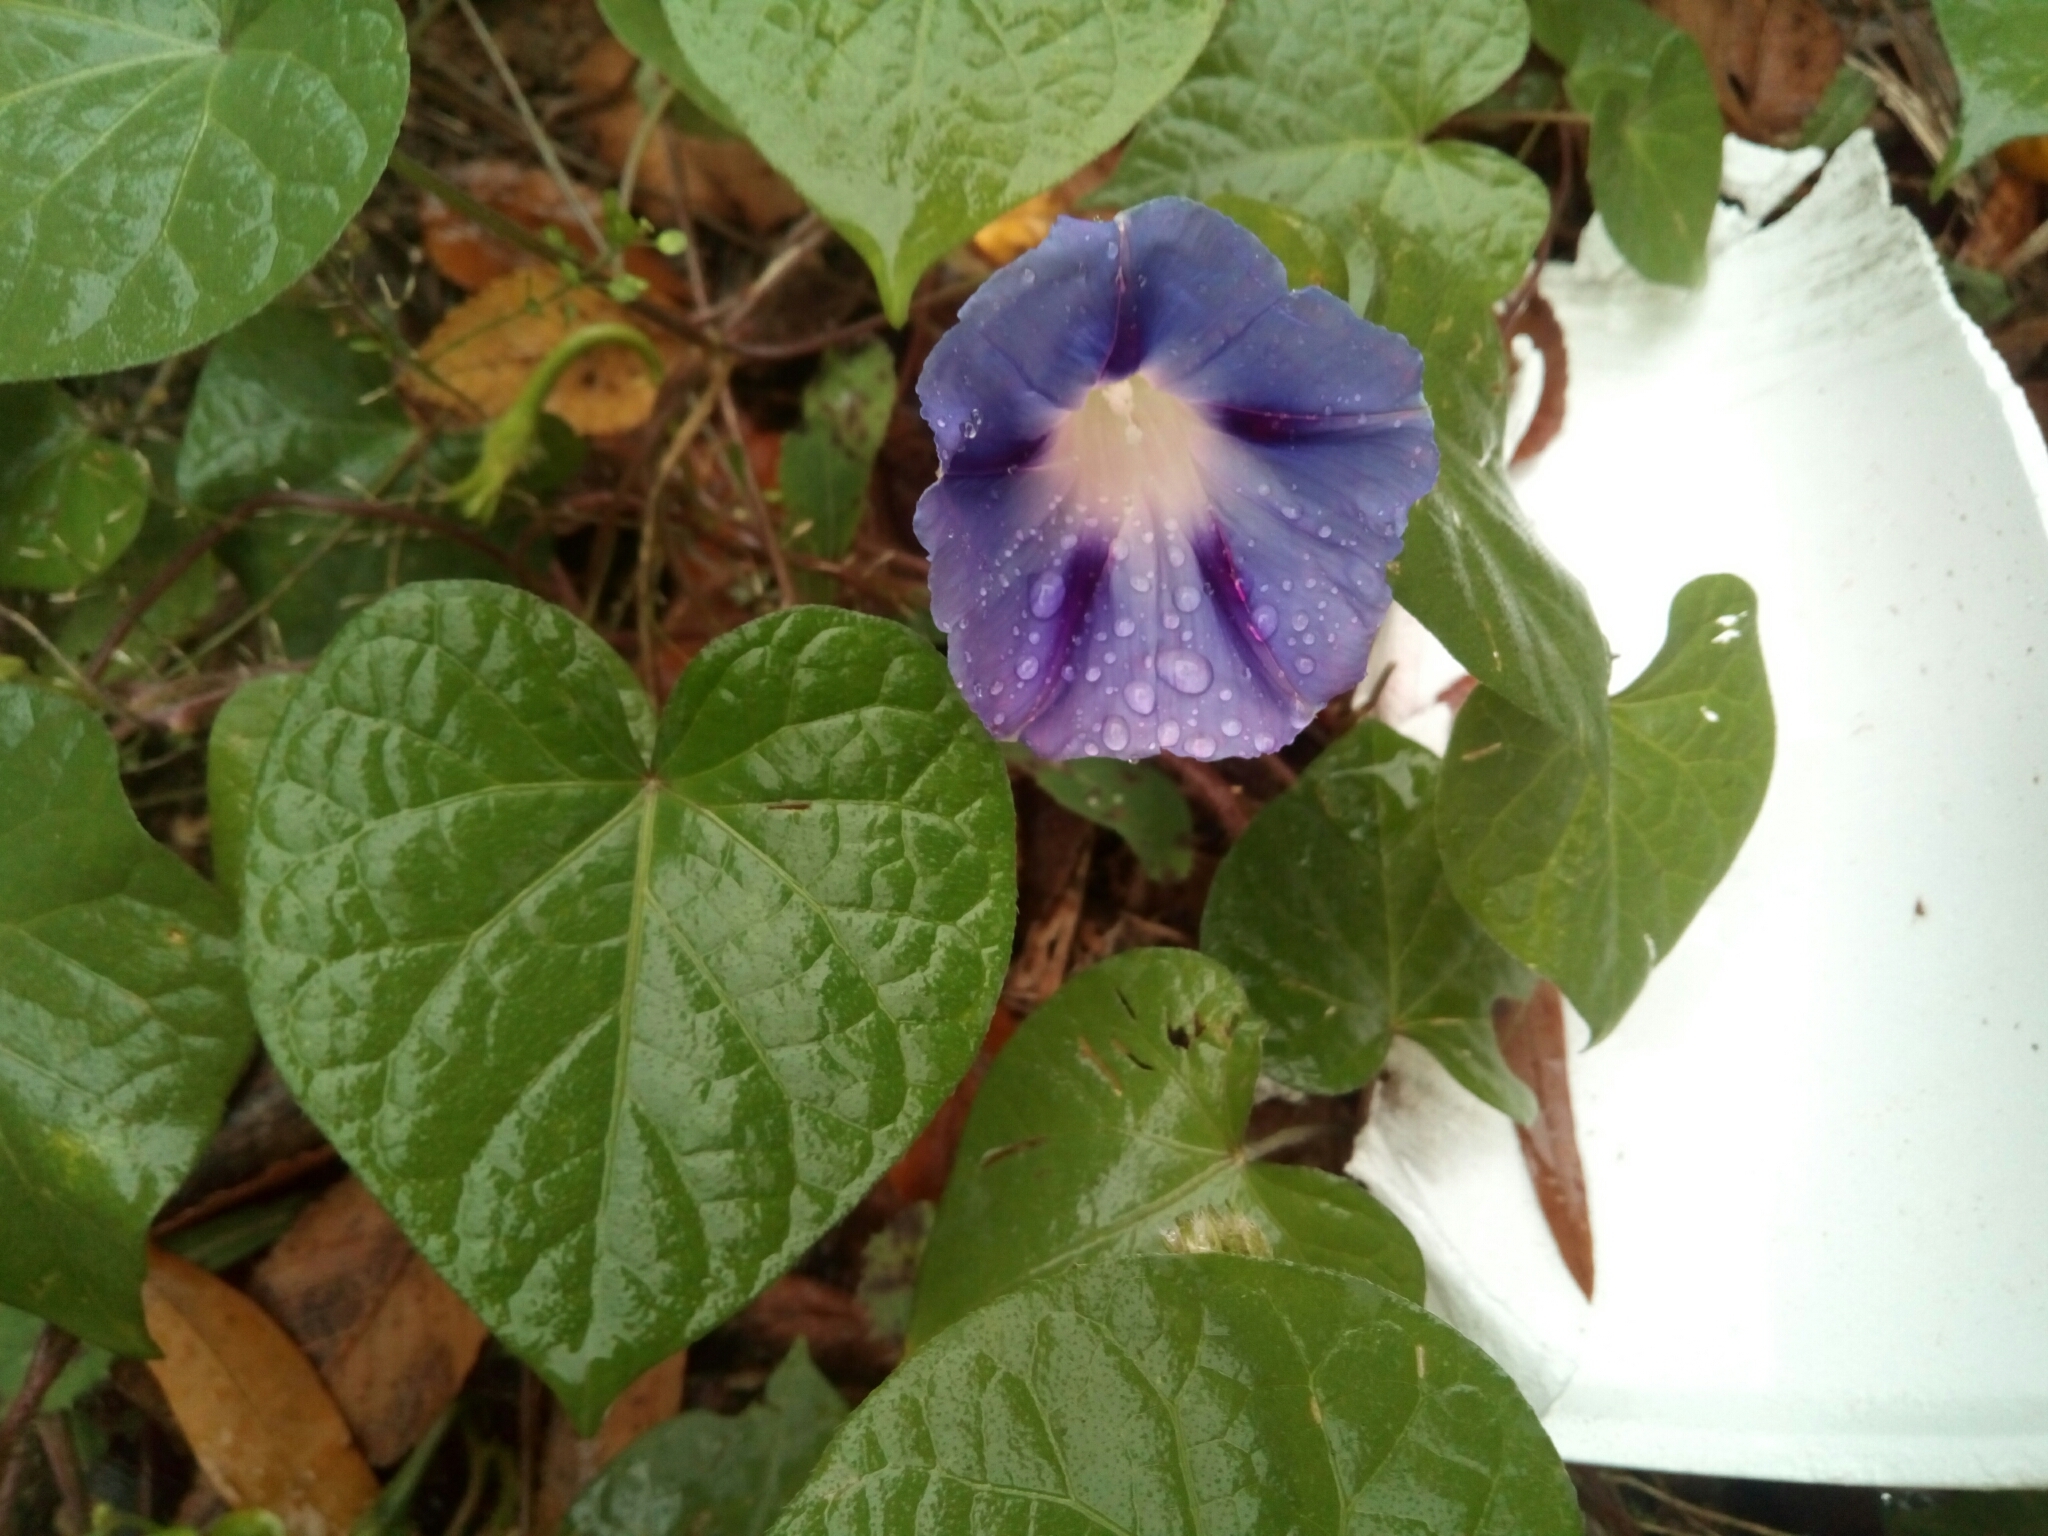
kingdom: Plantae
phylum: Tracheophyta
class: Magnoliopsida
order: Solanales
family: Convolvulaceae
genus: Ipomoea
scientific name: Ipomoea purpurea
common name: Common morning-glory
